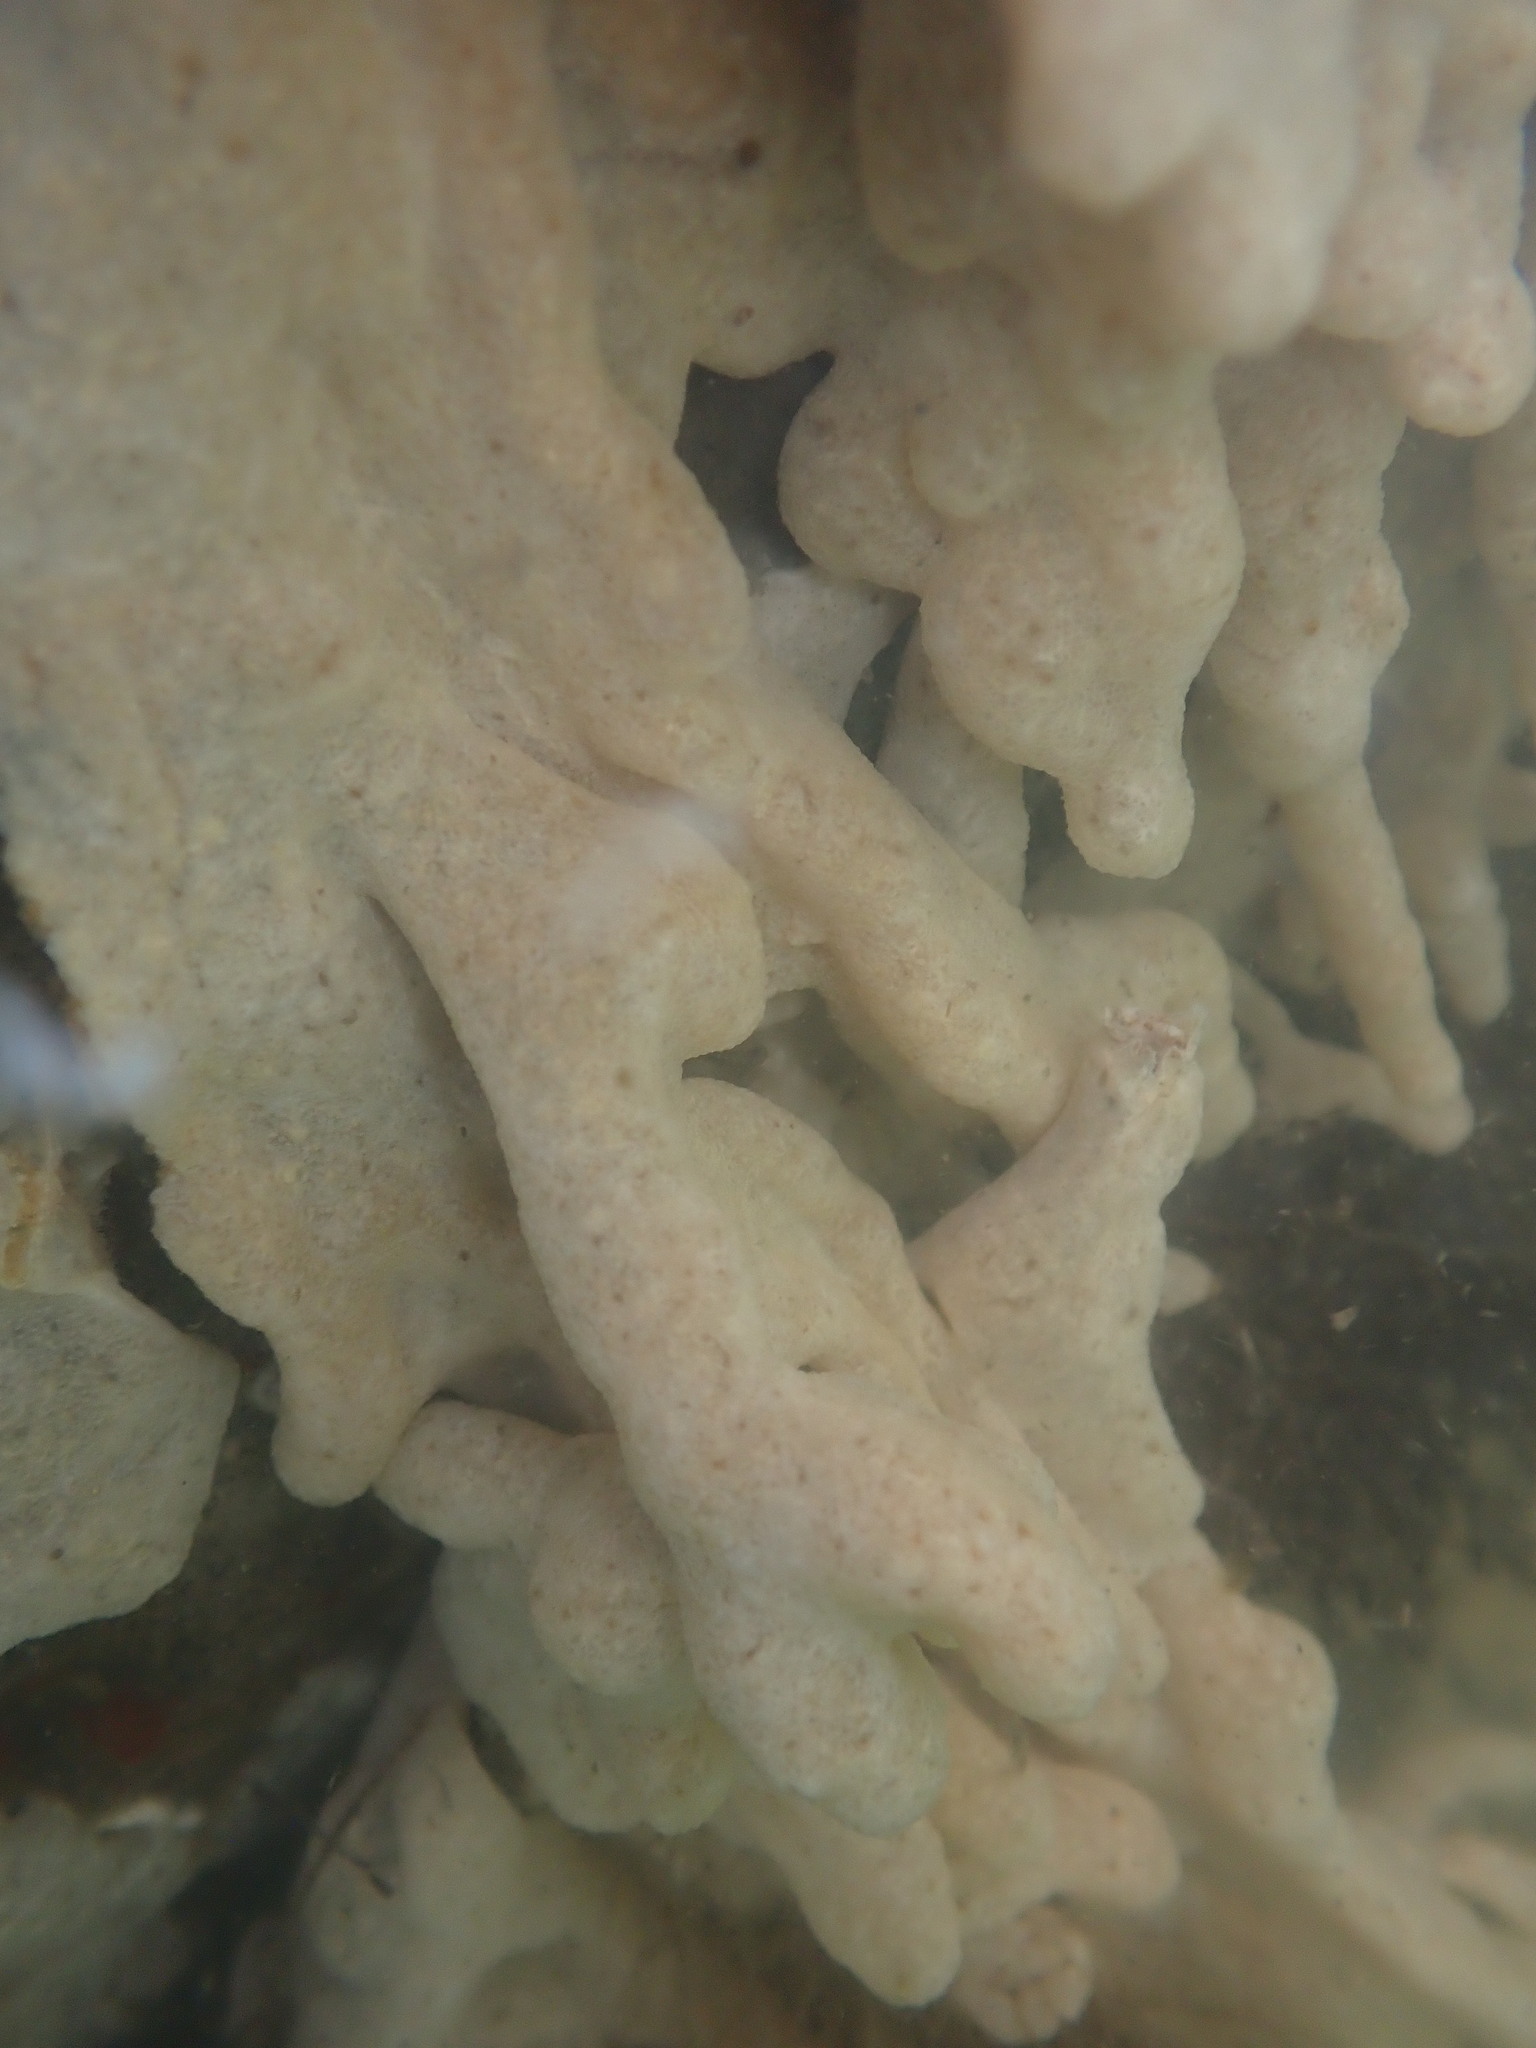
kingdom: Animalia
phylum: Chordata
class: Ascidiacea
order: Aplousobranchia
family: Didemnidae
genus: Didemnum
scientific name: Didemnum vexillum
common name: Compound sea squirt
